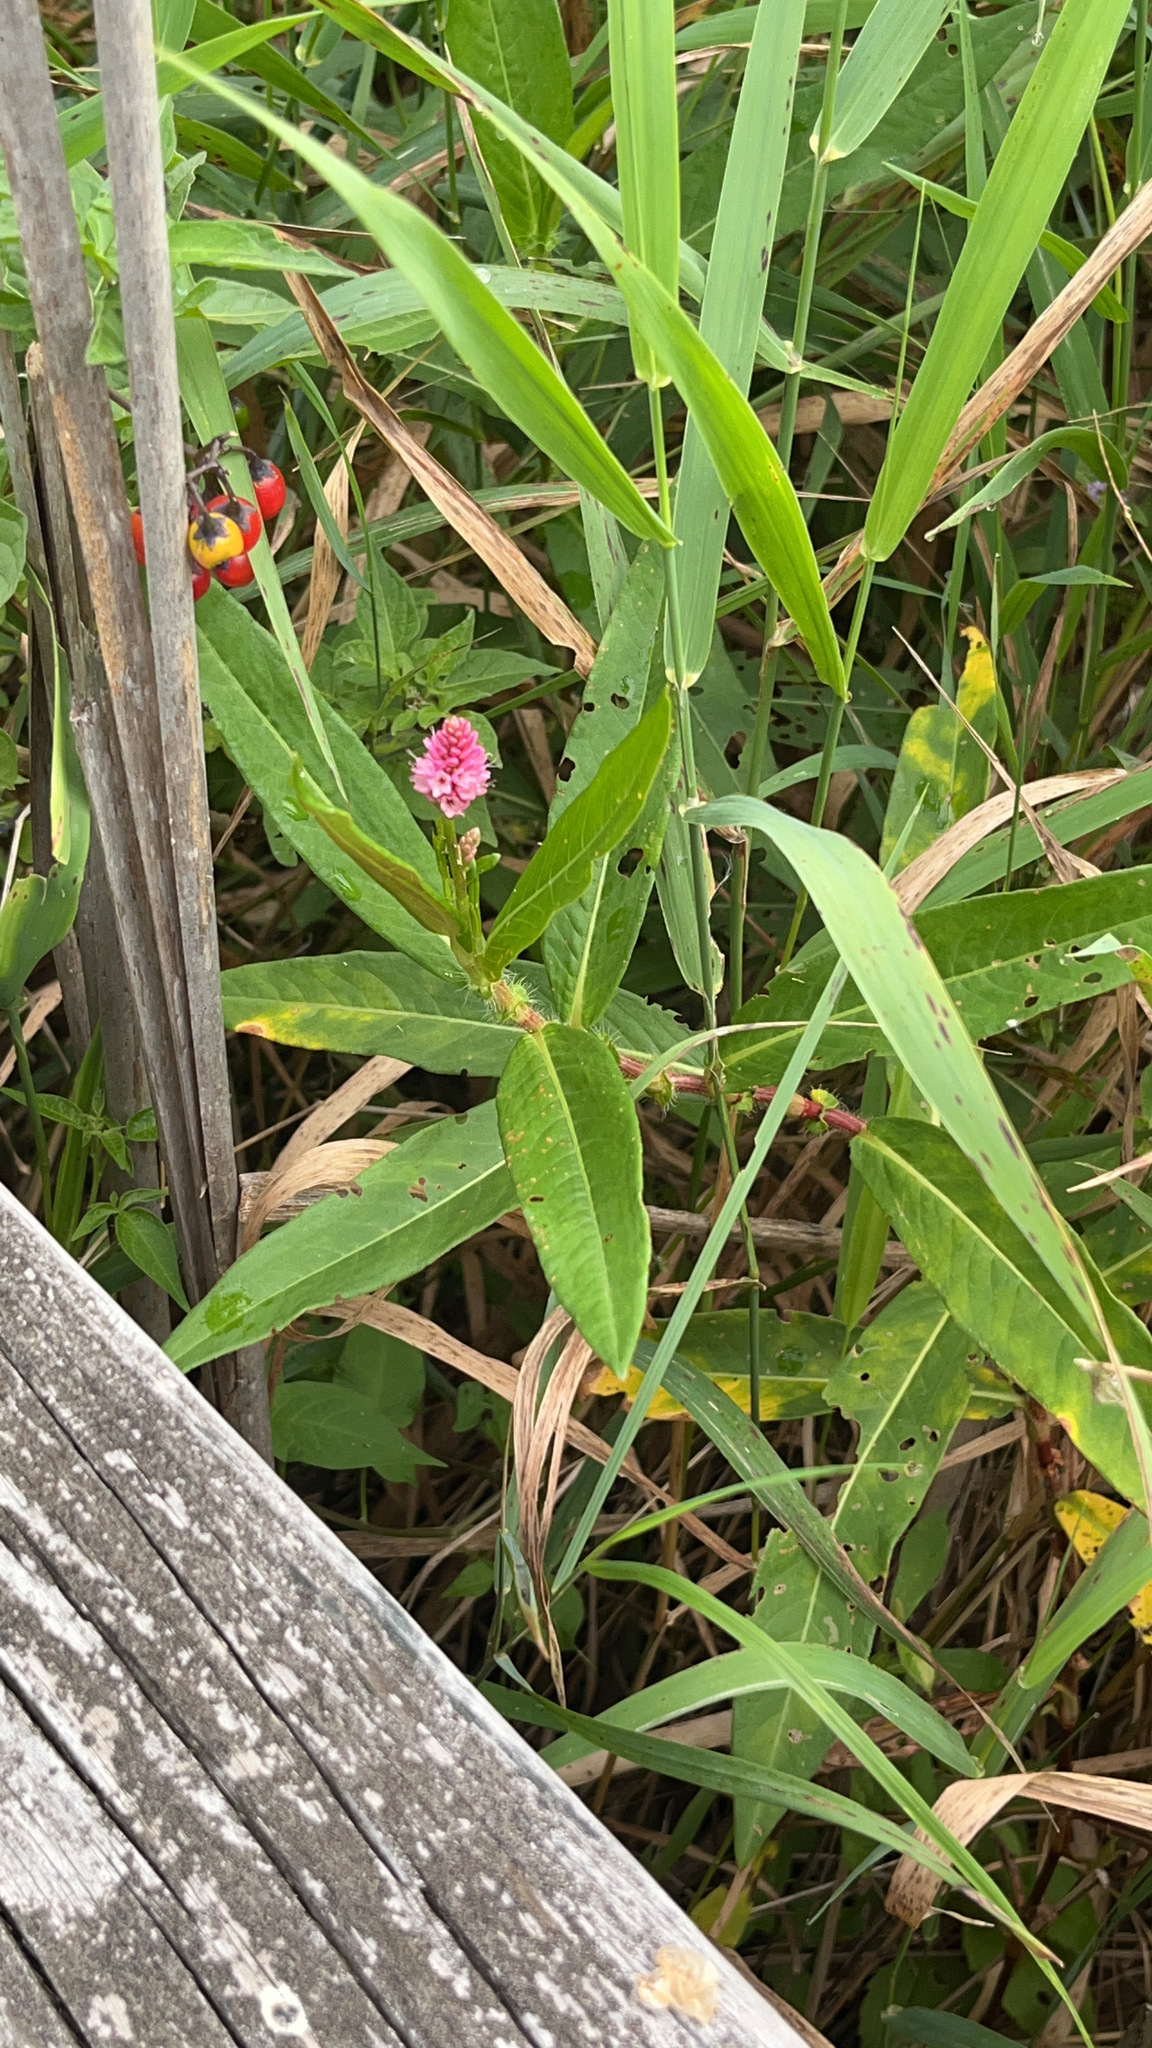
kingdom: Plantae
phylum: Tracheophyta
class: Magnoliopsida
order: Caryophyllales
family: Polygonaceae
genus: Persicaria
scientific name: Persicaria
